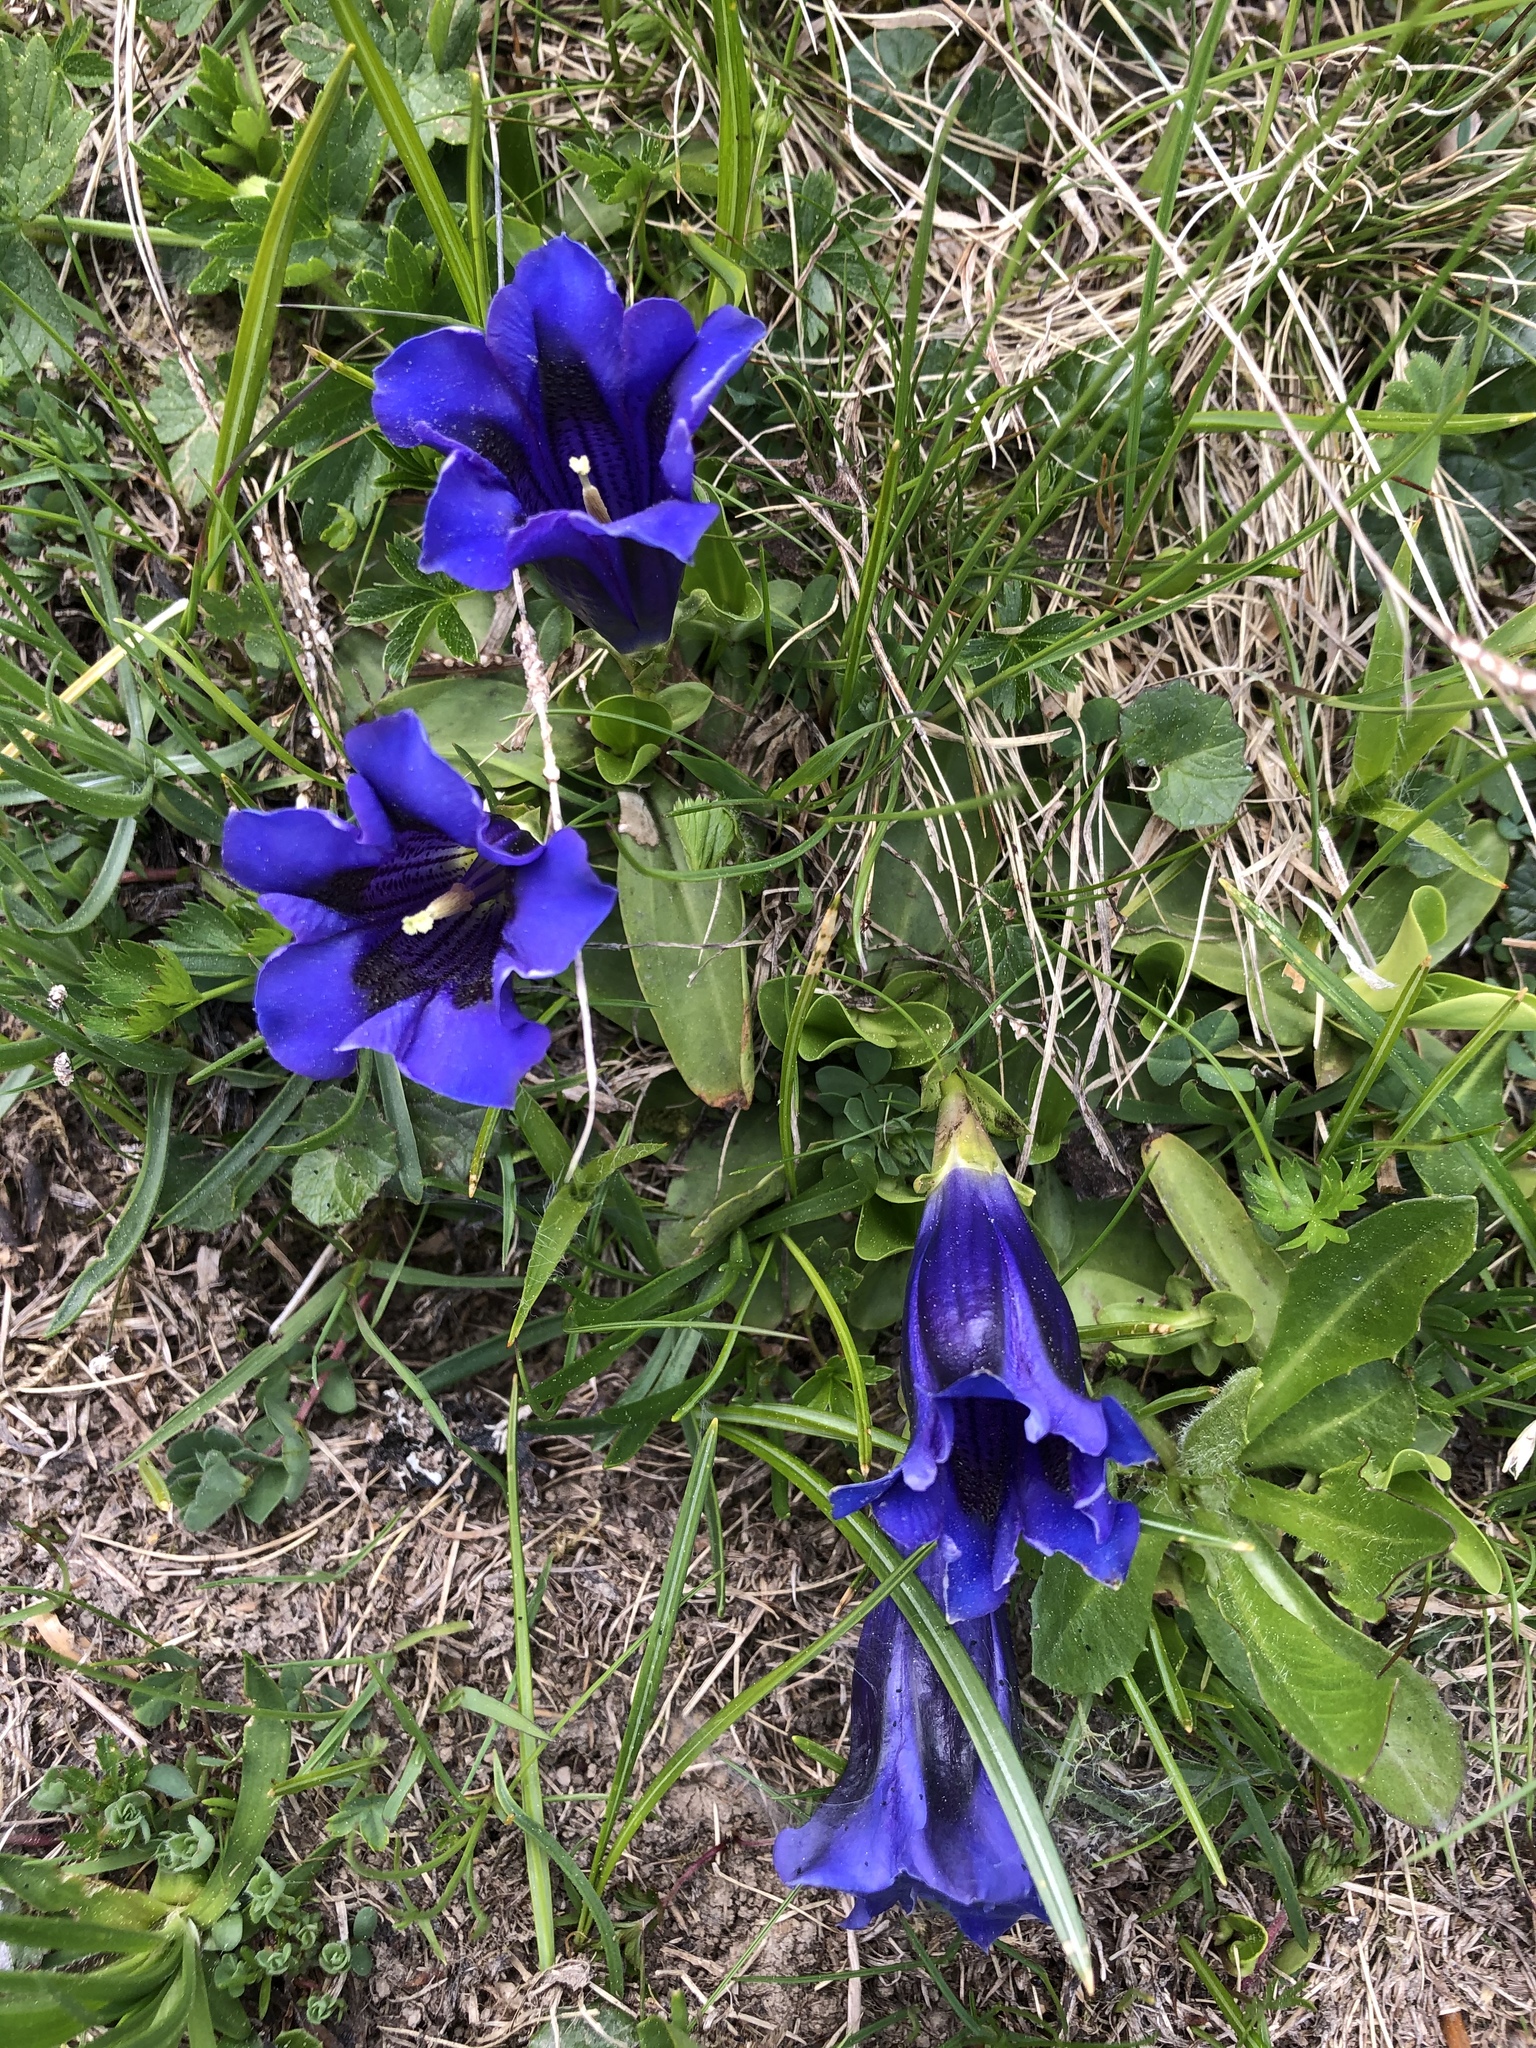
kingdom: Plantae
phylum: Tracheophyta
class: Magnoliopsida
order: Gentianales
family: Gentianaceae
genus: Gentiana
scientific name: Gentiana acaulis
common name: Trumpet gentian
